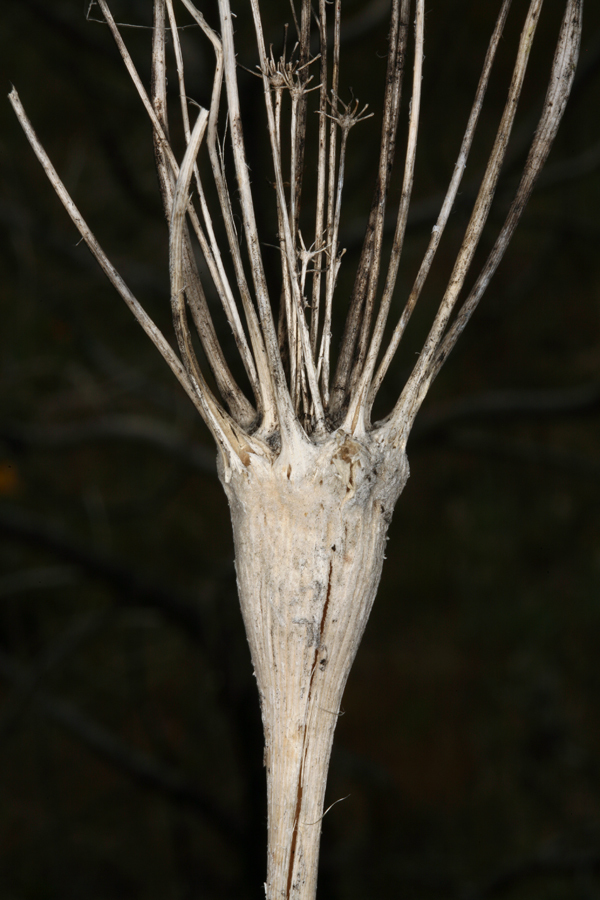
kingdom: Plantae
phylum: Tracheophyta
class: Magnoliopsida
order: Apiales
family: Apiaceae
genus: Lomatium
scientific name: Lomatium nudicaule
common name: Pestle lomatium
